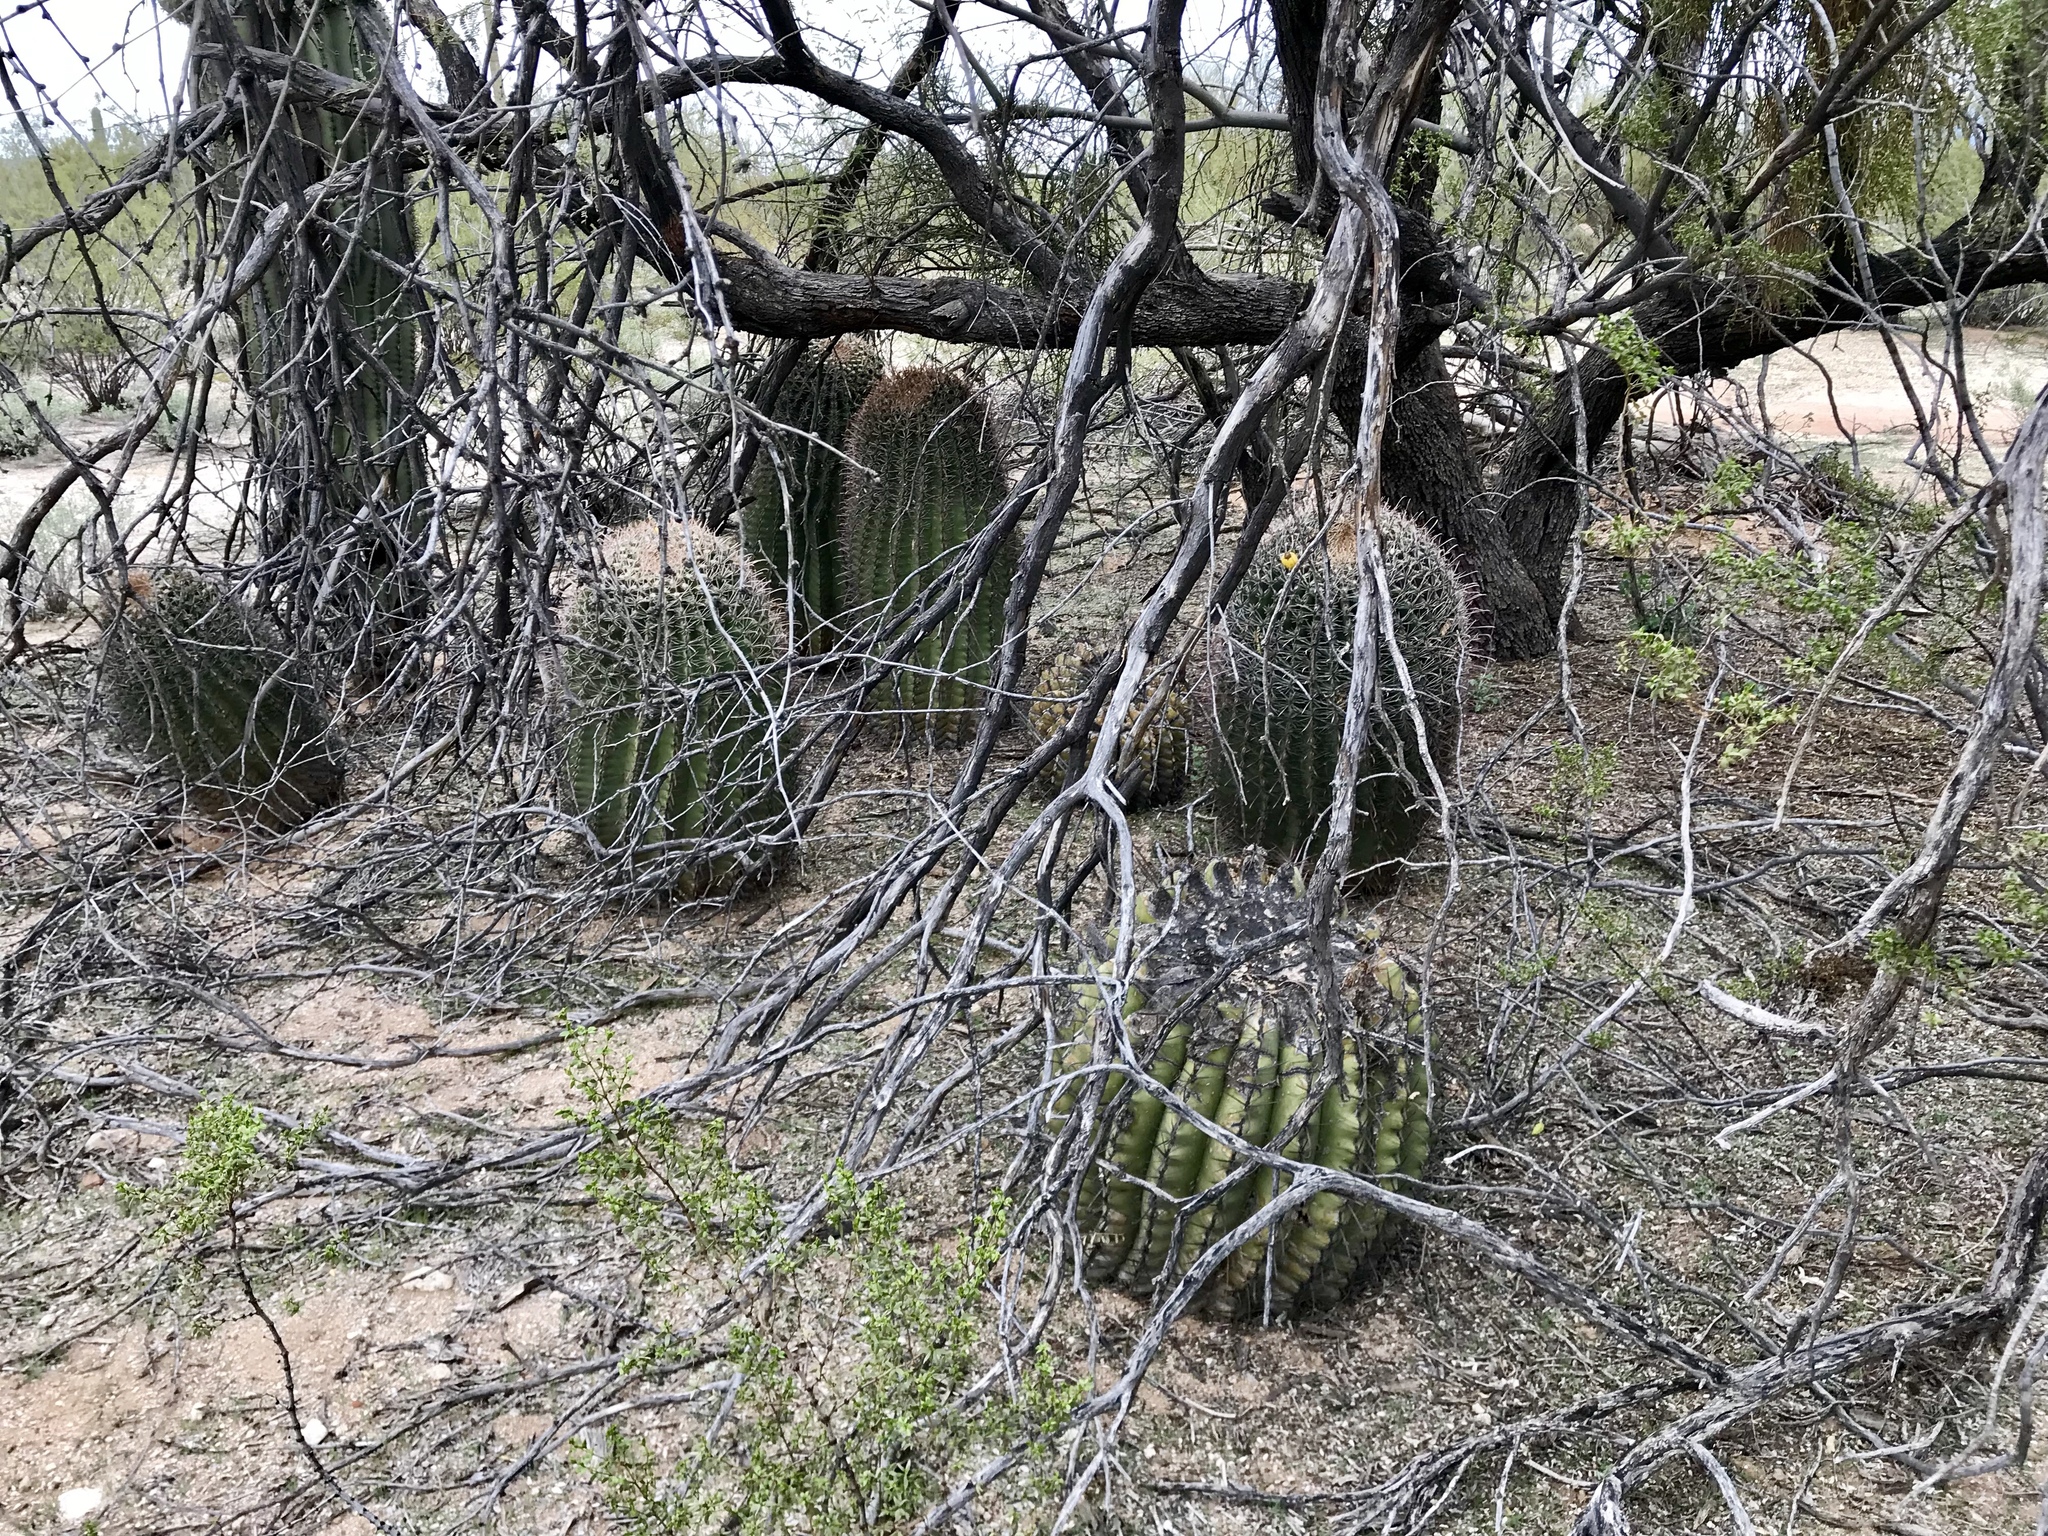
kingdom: Plantae
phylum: Tracheophyta
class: Magnoliopsida
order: Caryophyllales
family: Cactaceae
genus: Ferocactus
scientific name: Ferocactus wislizeni
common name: Candy barrel cactus
